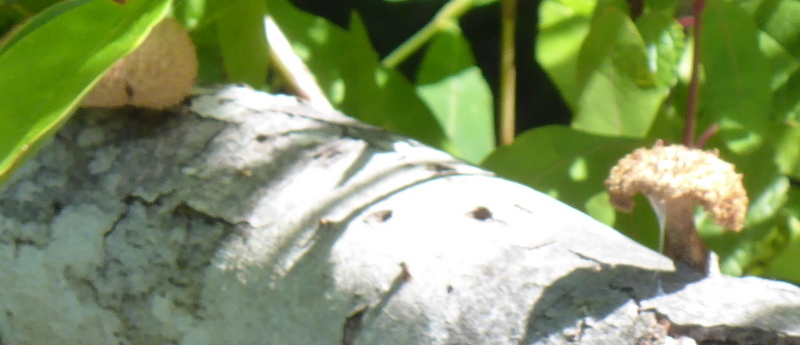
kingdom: Fungi
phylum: Basidiomycota
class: Agaricomycetes
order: Polyporales
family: Polyporaceae
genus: Lentinus
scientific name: Lentinus crinitus
